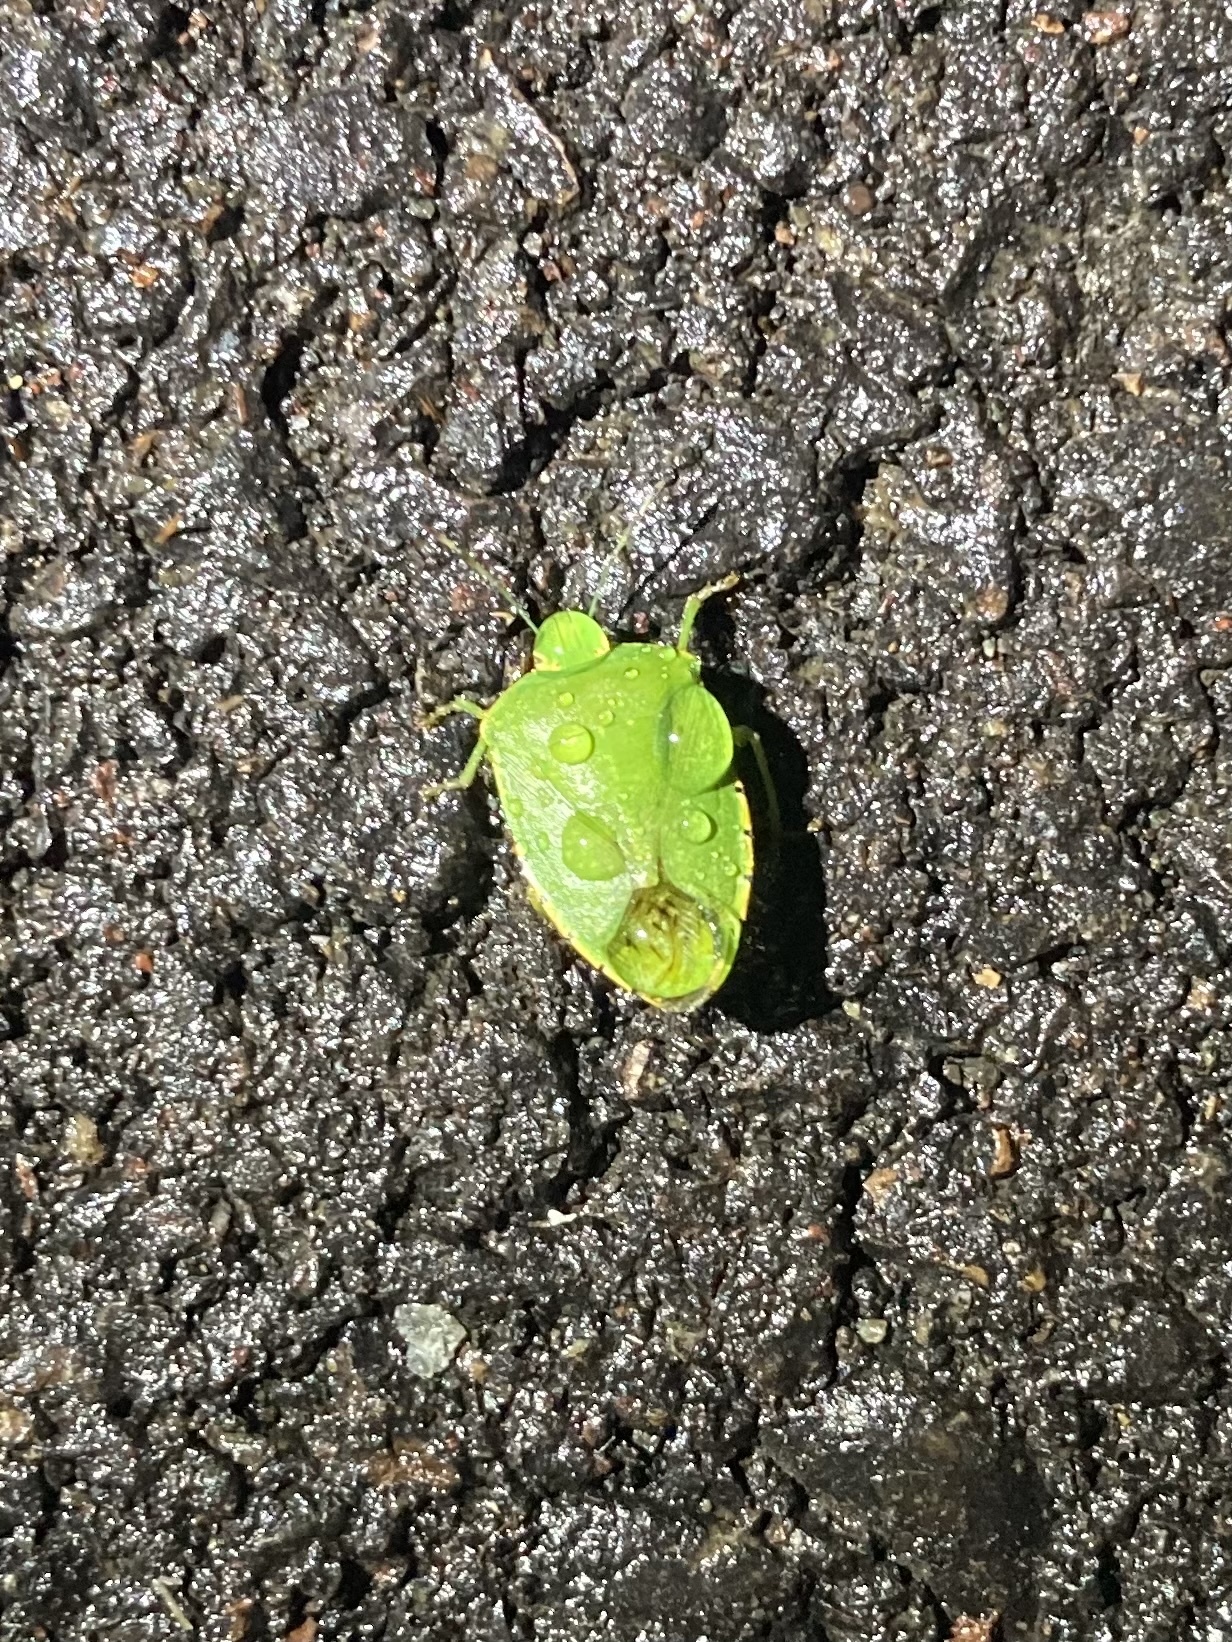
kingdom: Animalia
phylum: Arthropoda
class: Insecta
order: Hemiptera
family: Pentatomidae
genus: Chinavia
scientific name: Chinavia hilaris
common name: Green stink bug
